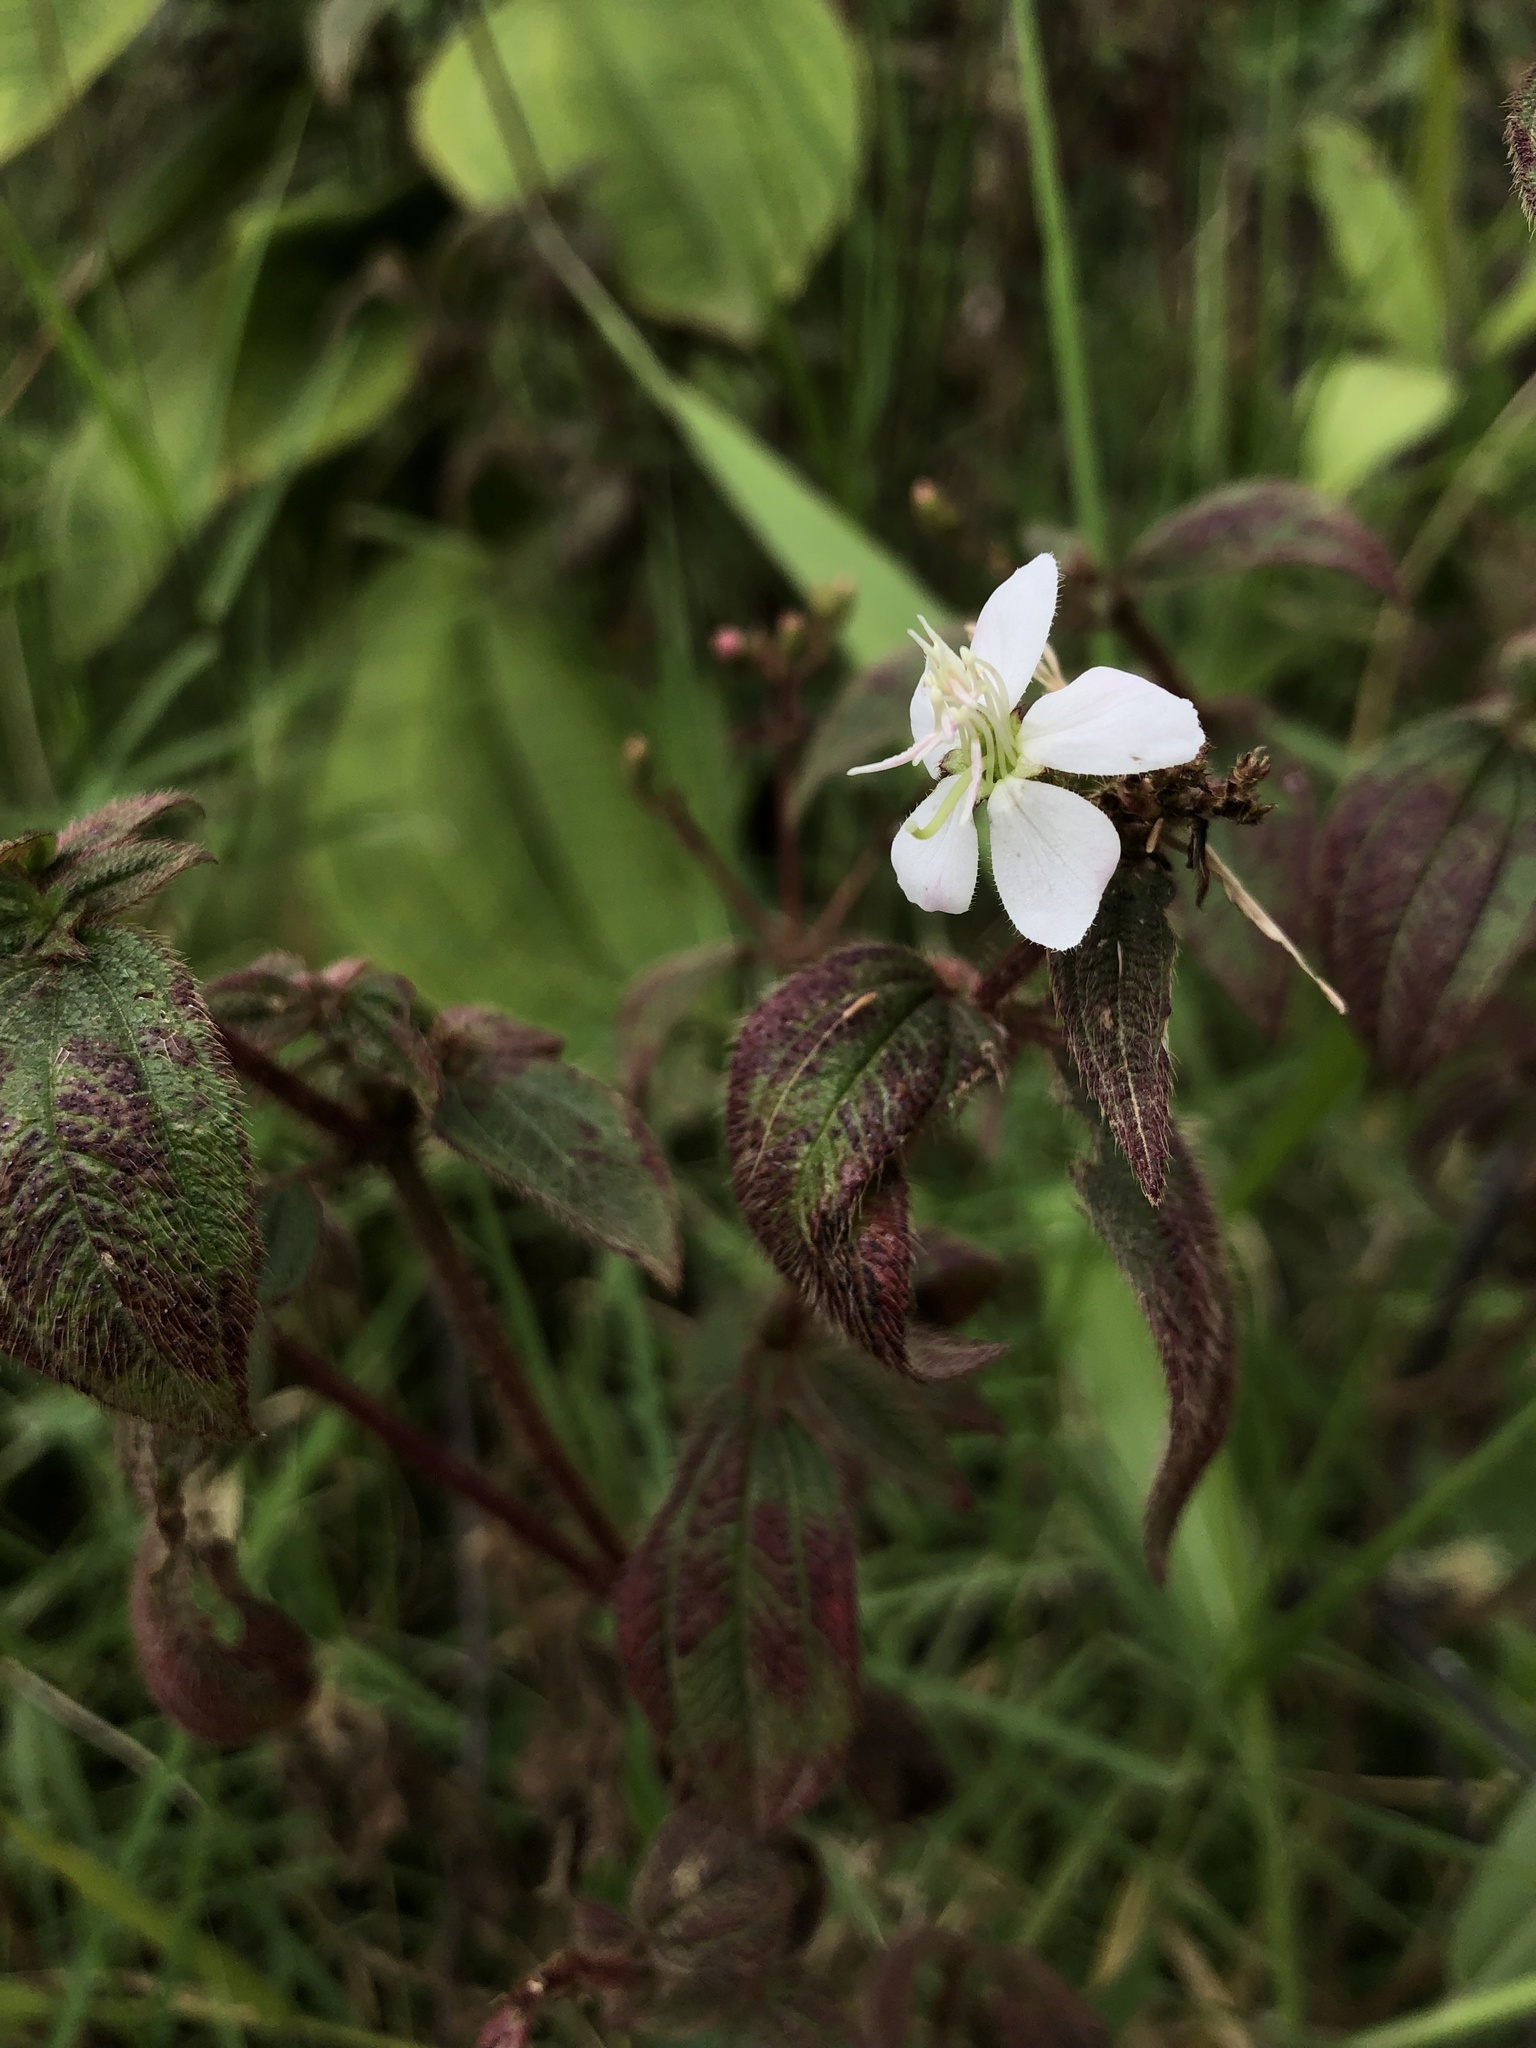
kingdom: Plantae
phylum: Tracheophyta
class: Magnoliopsida
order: Myrtales
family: Melastomataceae
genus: Chaetogastra
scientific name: Chaetogastra ciliaris
